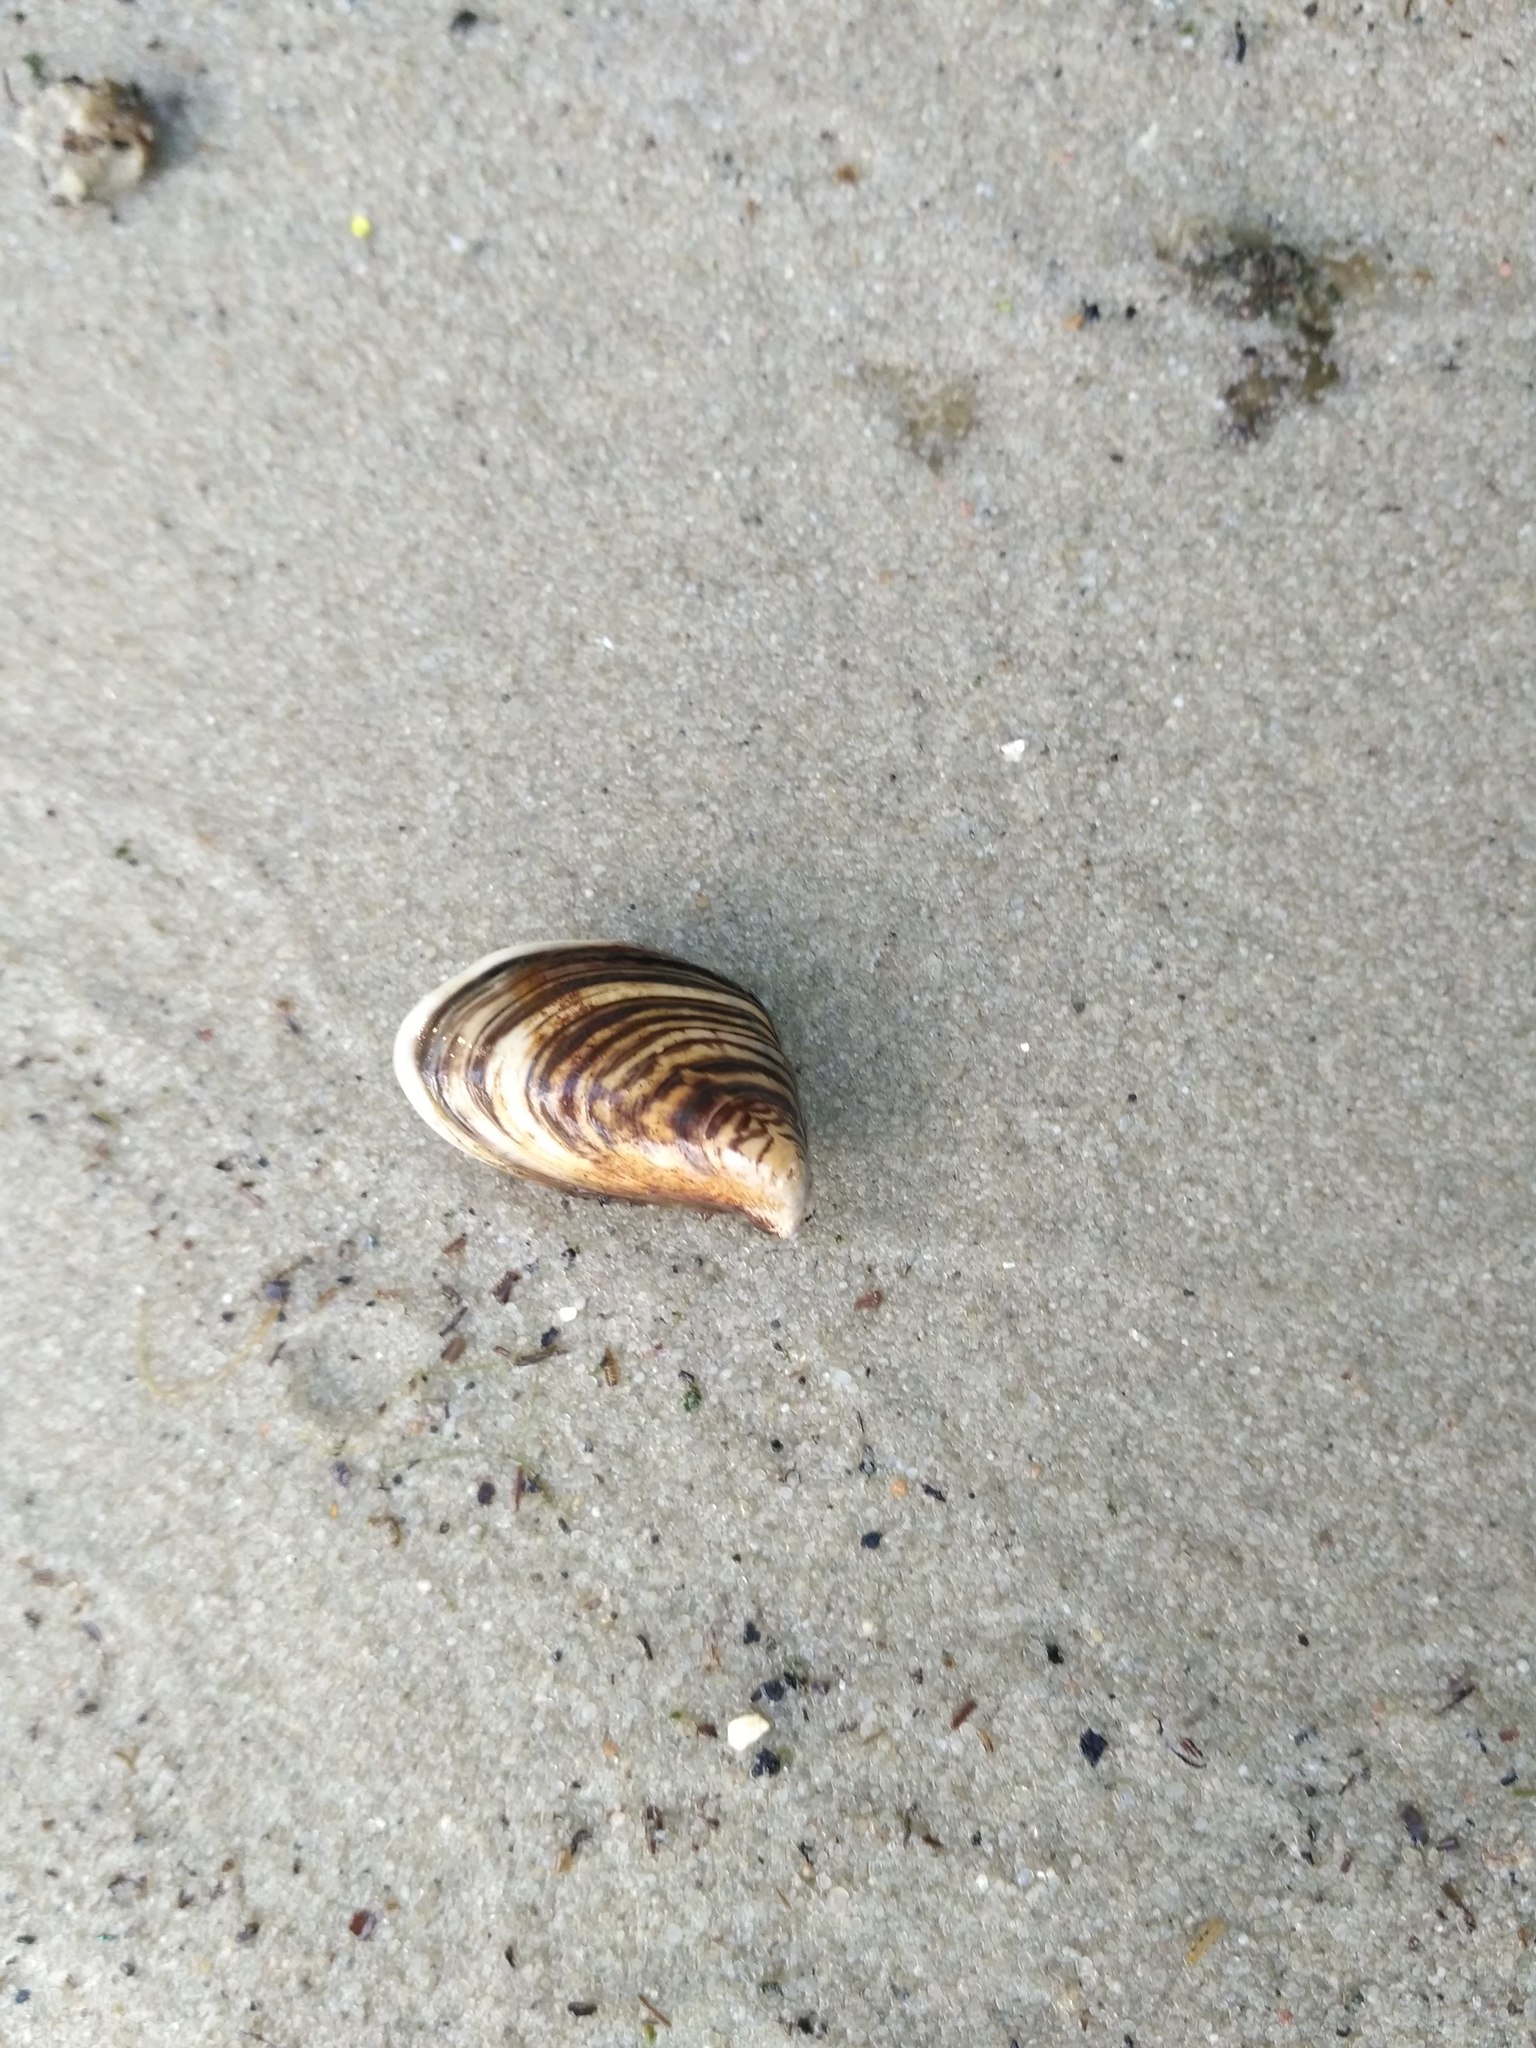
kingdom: Animalia
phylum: Mollusca
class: Bivalvia
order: Myida
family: Dreissenidae
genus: Dreissena
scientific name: Dreissena bugensis
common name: Quagga mussel
